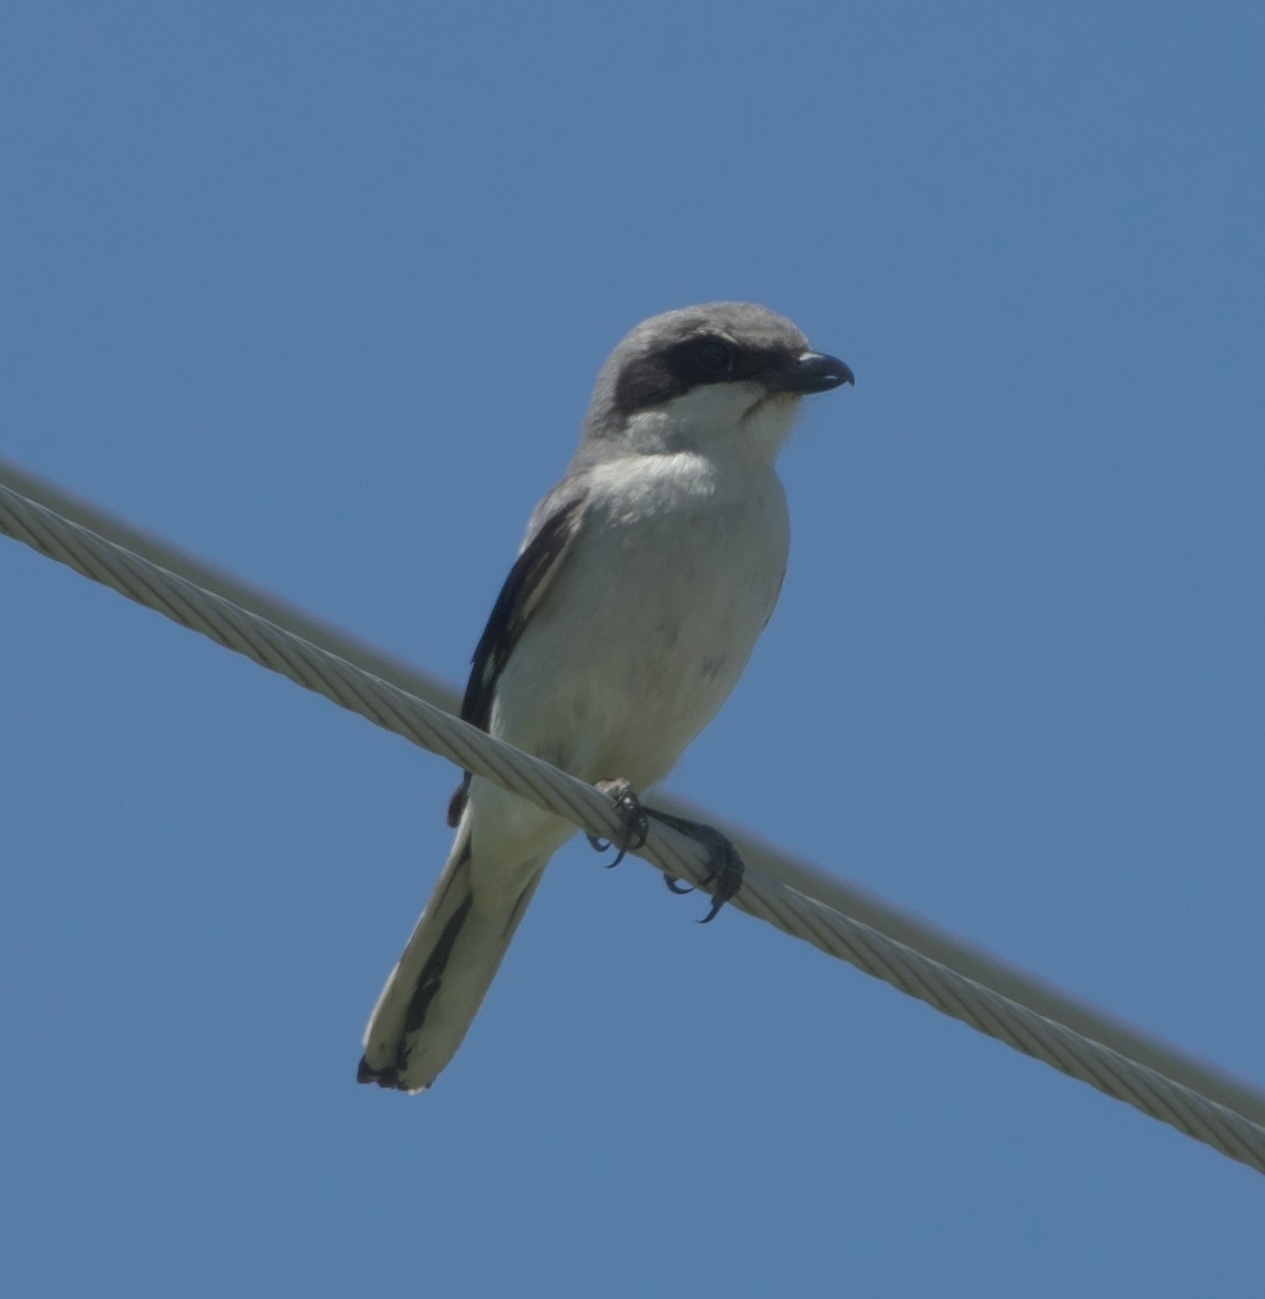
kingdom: Animalia
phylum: Chordata
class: Aves
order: Passeriformes
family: Laniidae
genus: Lanius
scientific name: Lanius ludovicianus
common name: Loggerhead shrike
